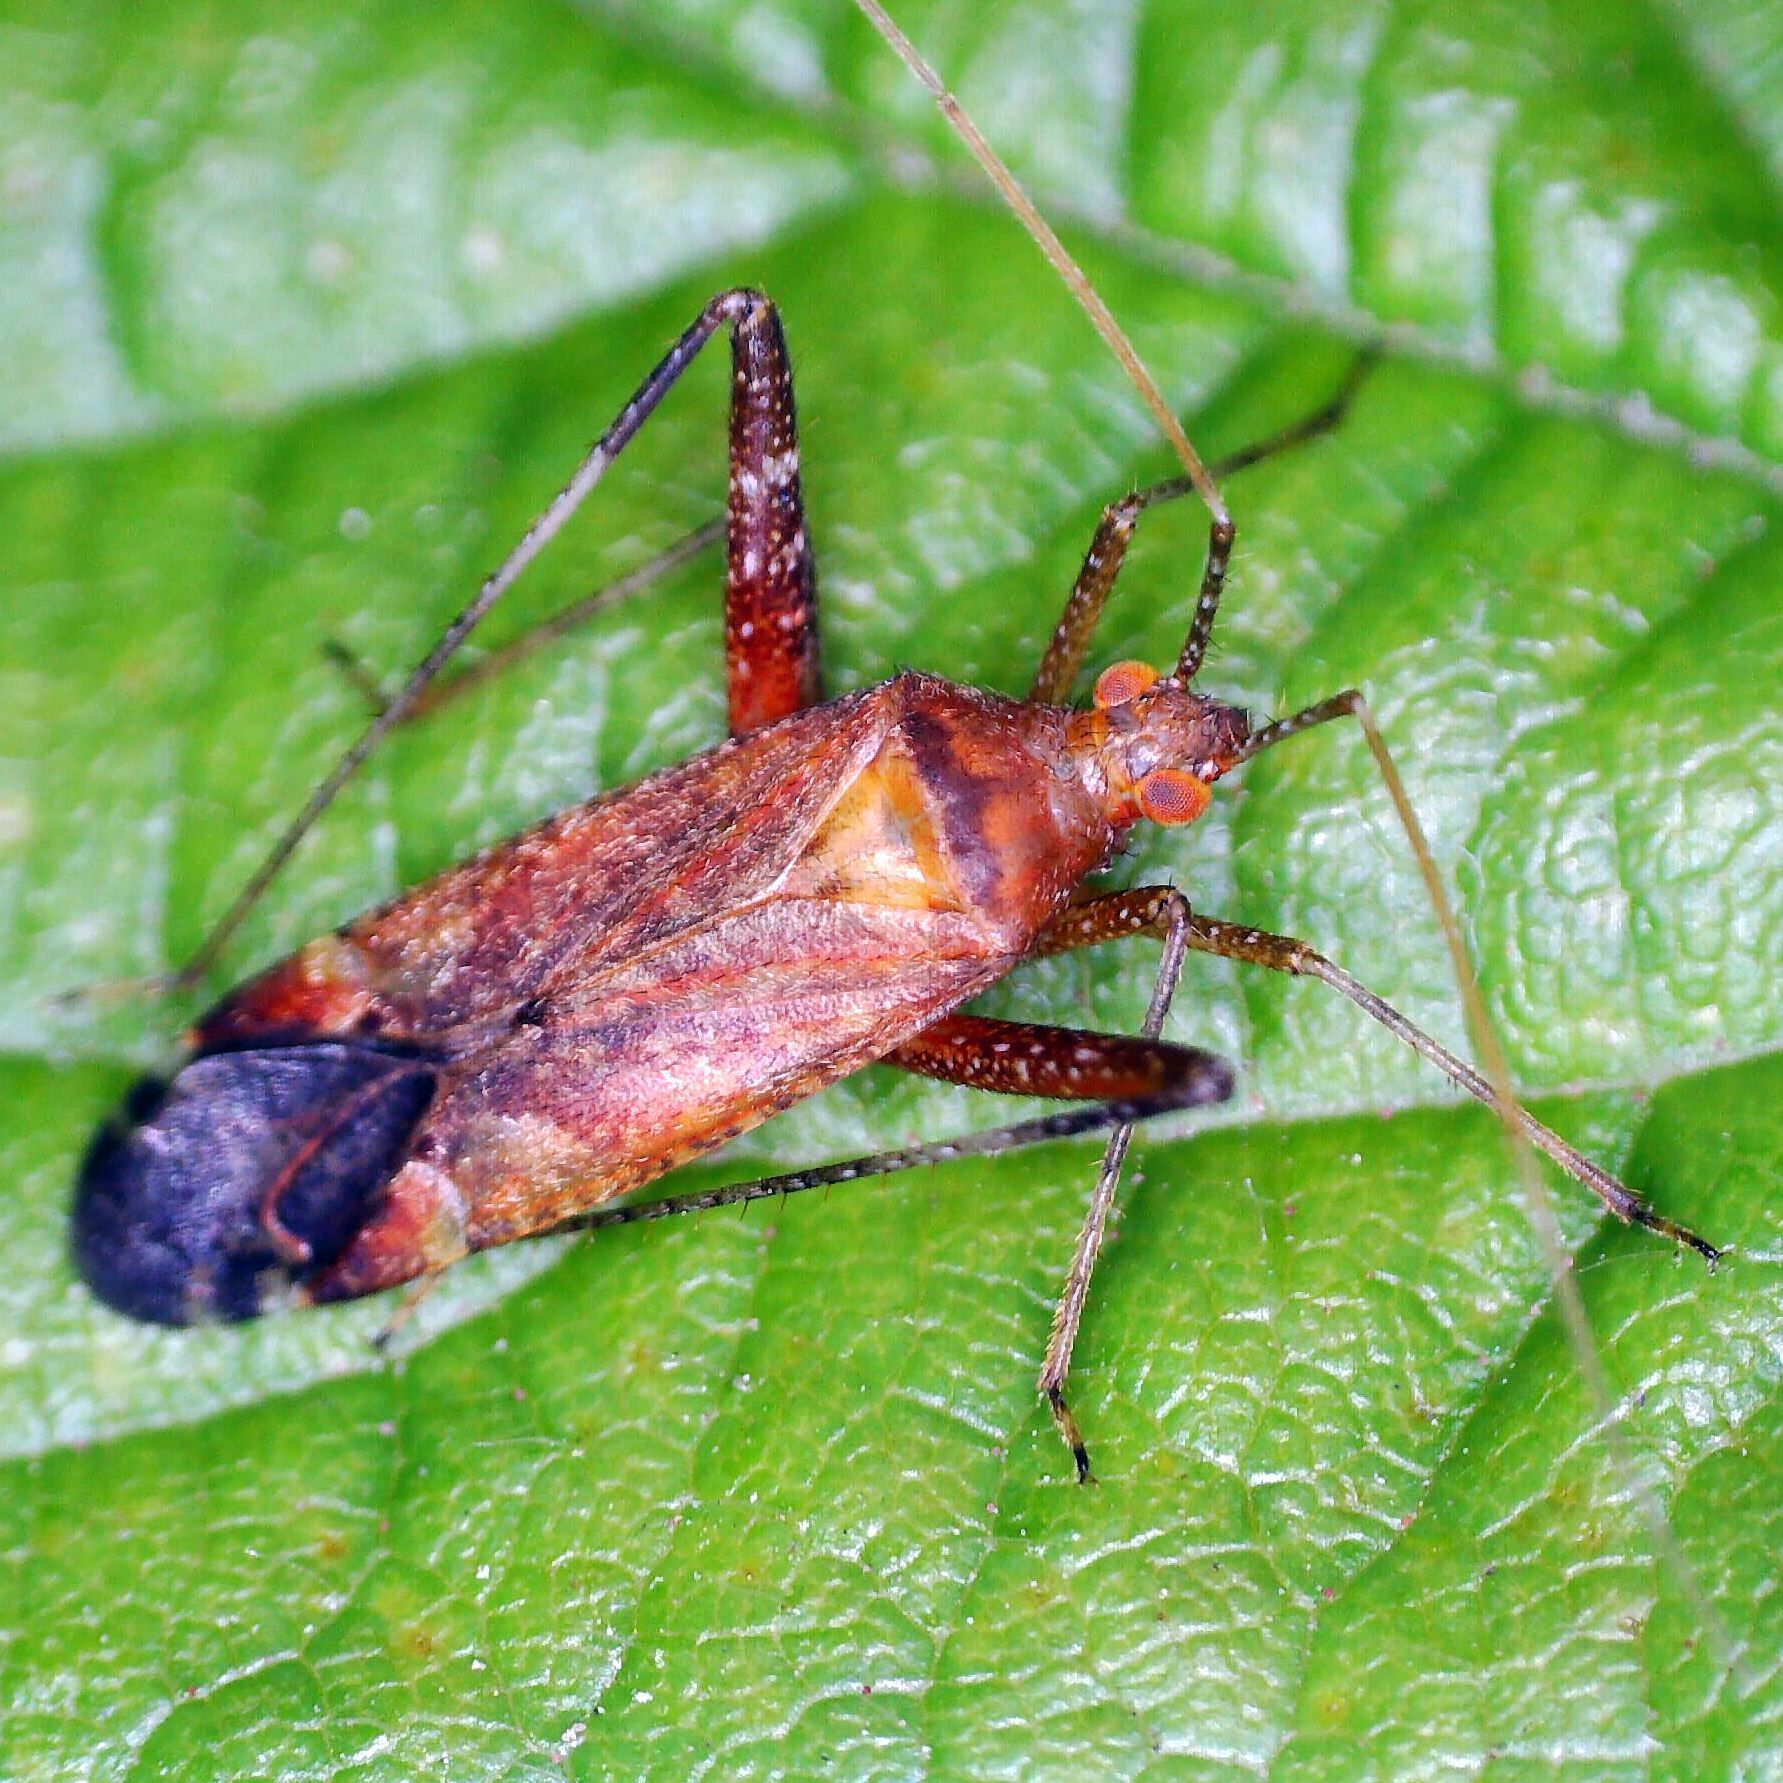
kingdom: Animalia
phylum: Arthropoda
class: Insecta
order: Hemiptera
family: Miridae
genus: Phytocoris
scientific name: Phytocoris ulmi
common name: Plant bug
